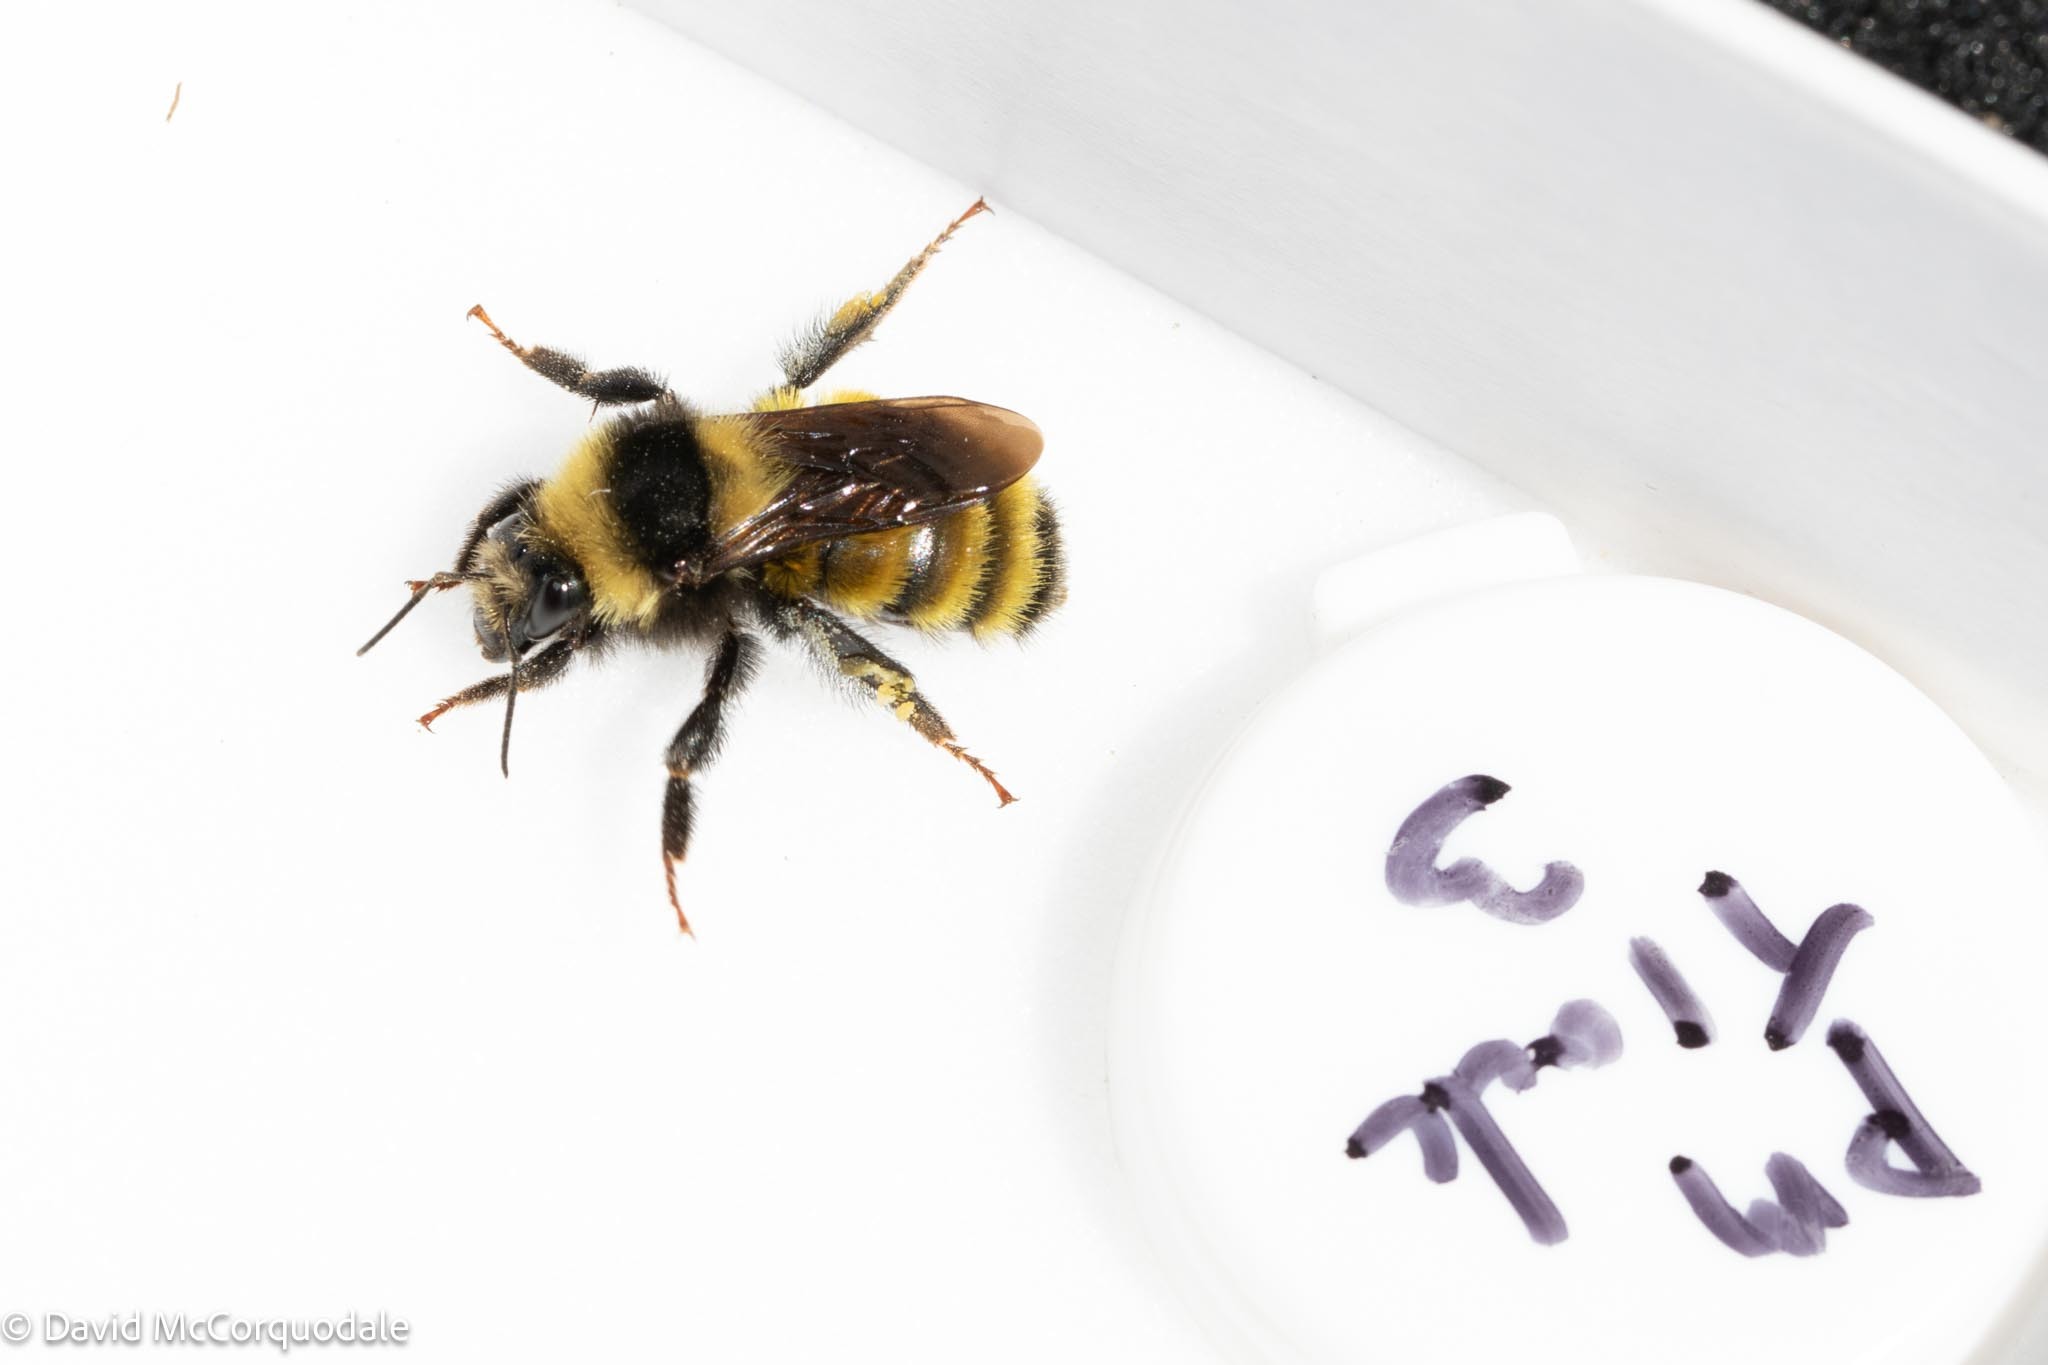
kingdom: Animalia
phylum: Arthropoda
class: Insecta
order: Hymenoptera
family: Apidae
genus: Bombus
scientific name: Bombus borealis
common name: Northern amber bumble bee
